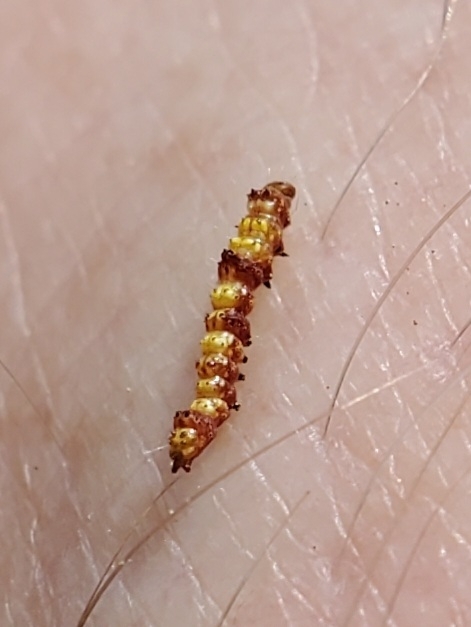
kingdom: Animalia
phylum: Arthropoda
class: Insecta
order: Lepidoptera
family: Notodontidae
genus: Schizura
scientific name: Schizura ipomaeae
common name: Morning-glory prominent
